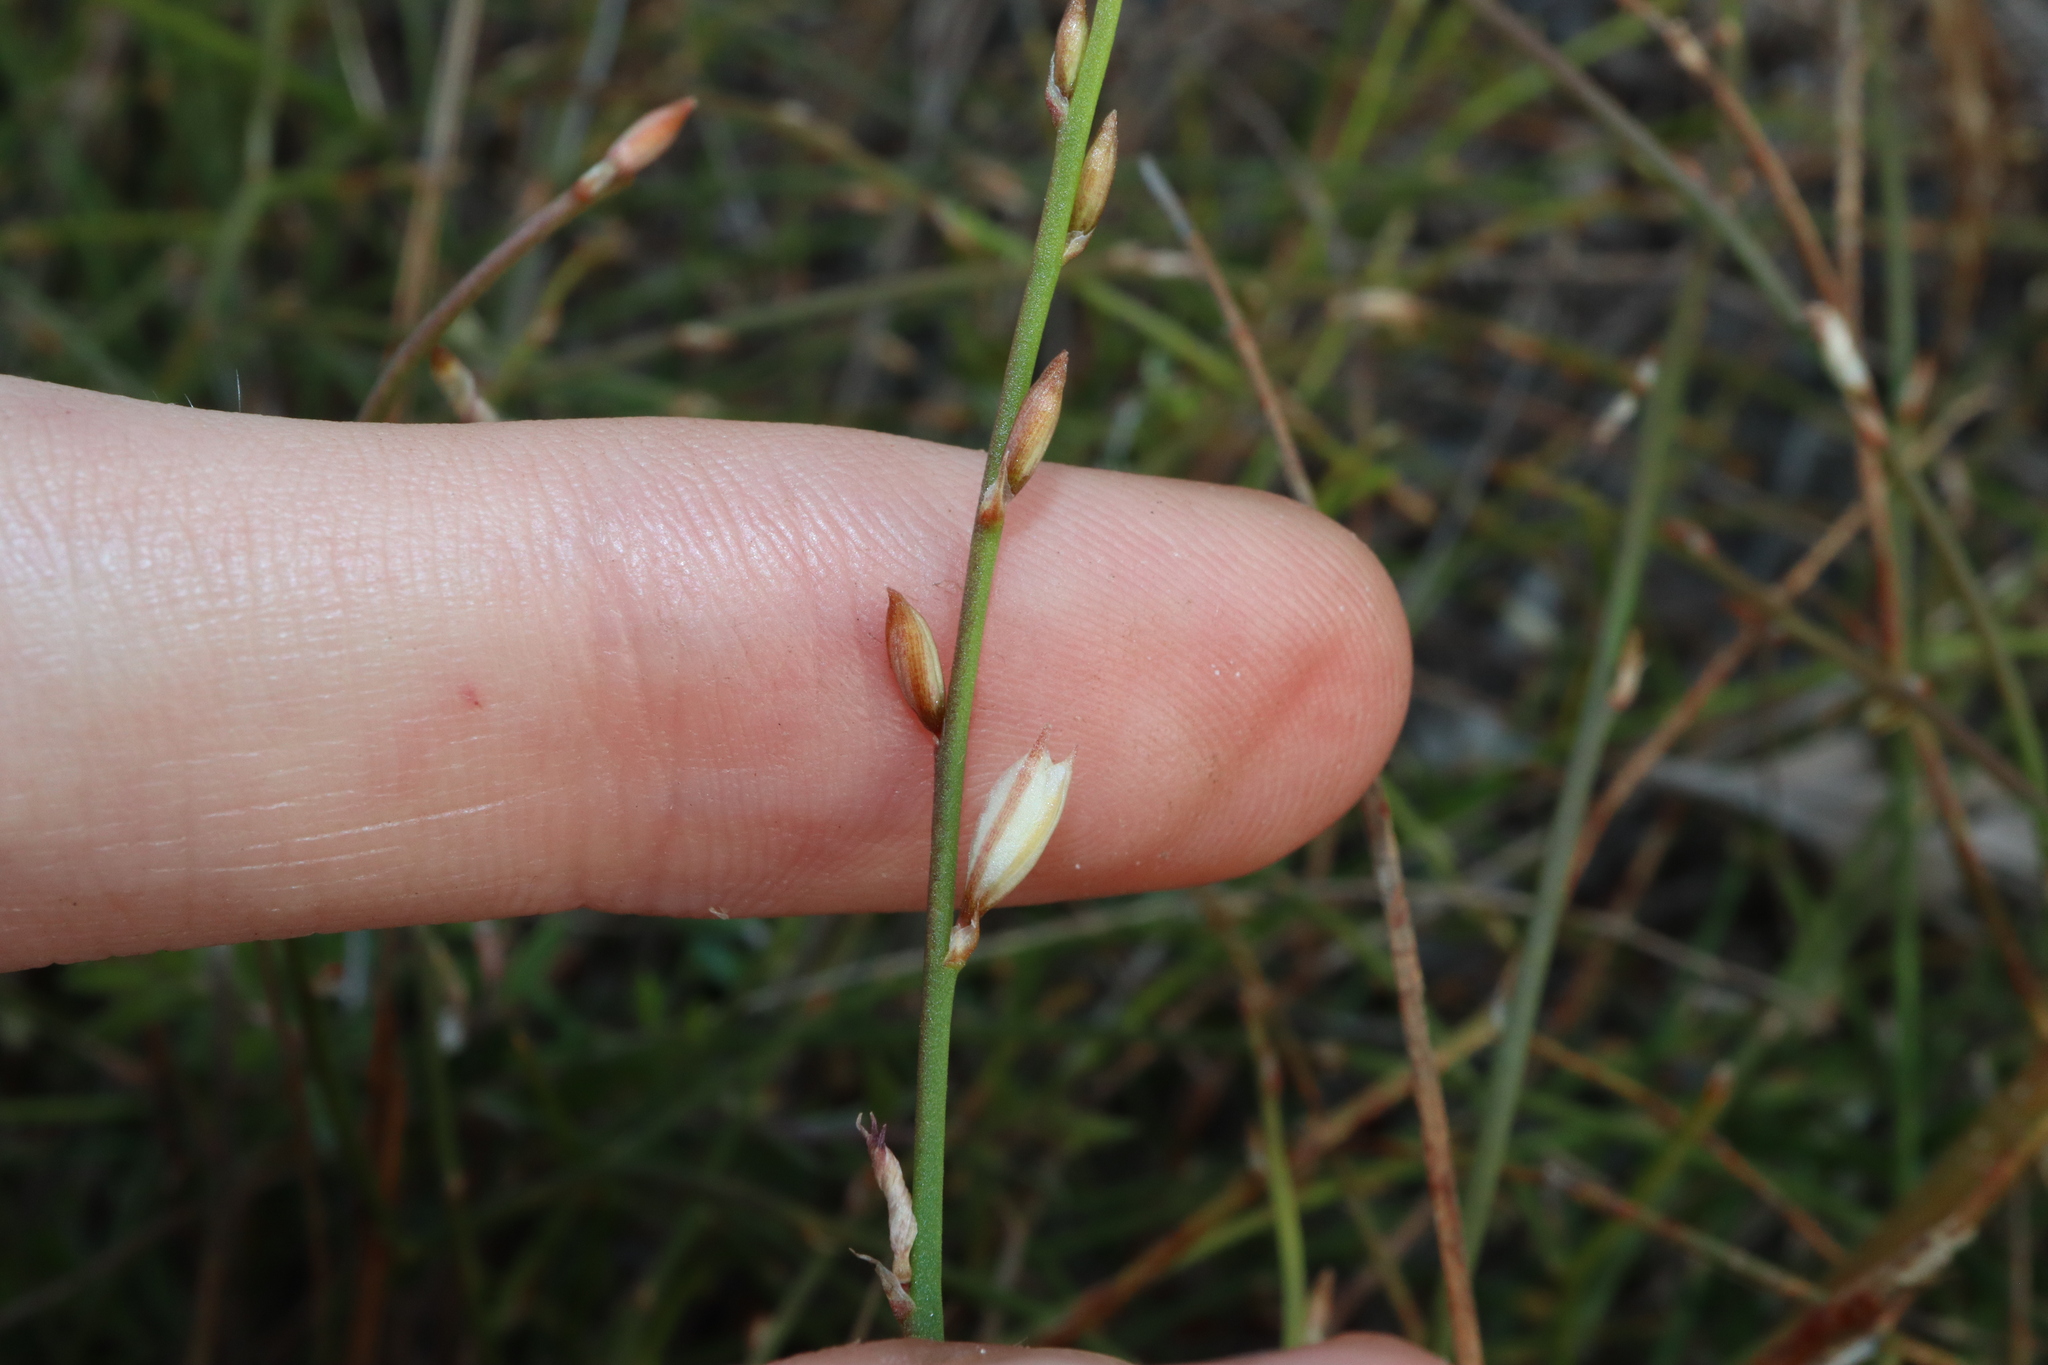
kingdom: Plantae
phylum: Tracheophyta
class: Liliopsida
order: Asparagales
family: Asphodelaceae
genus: Caesia
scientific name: Caesia arcuata
